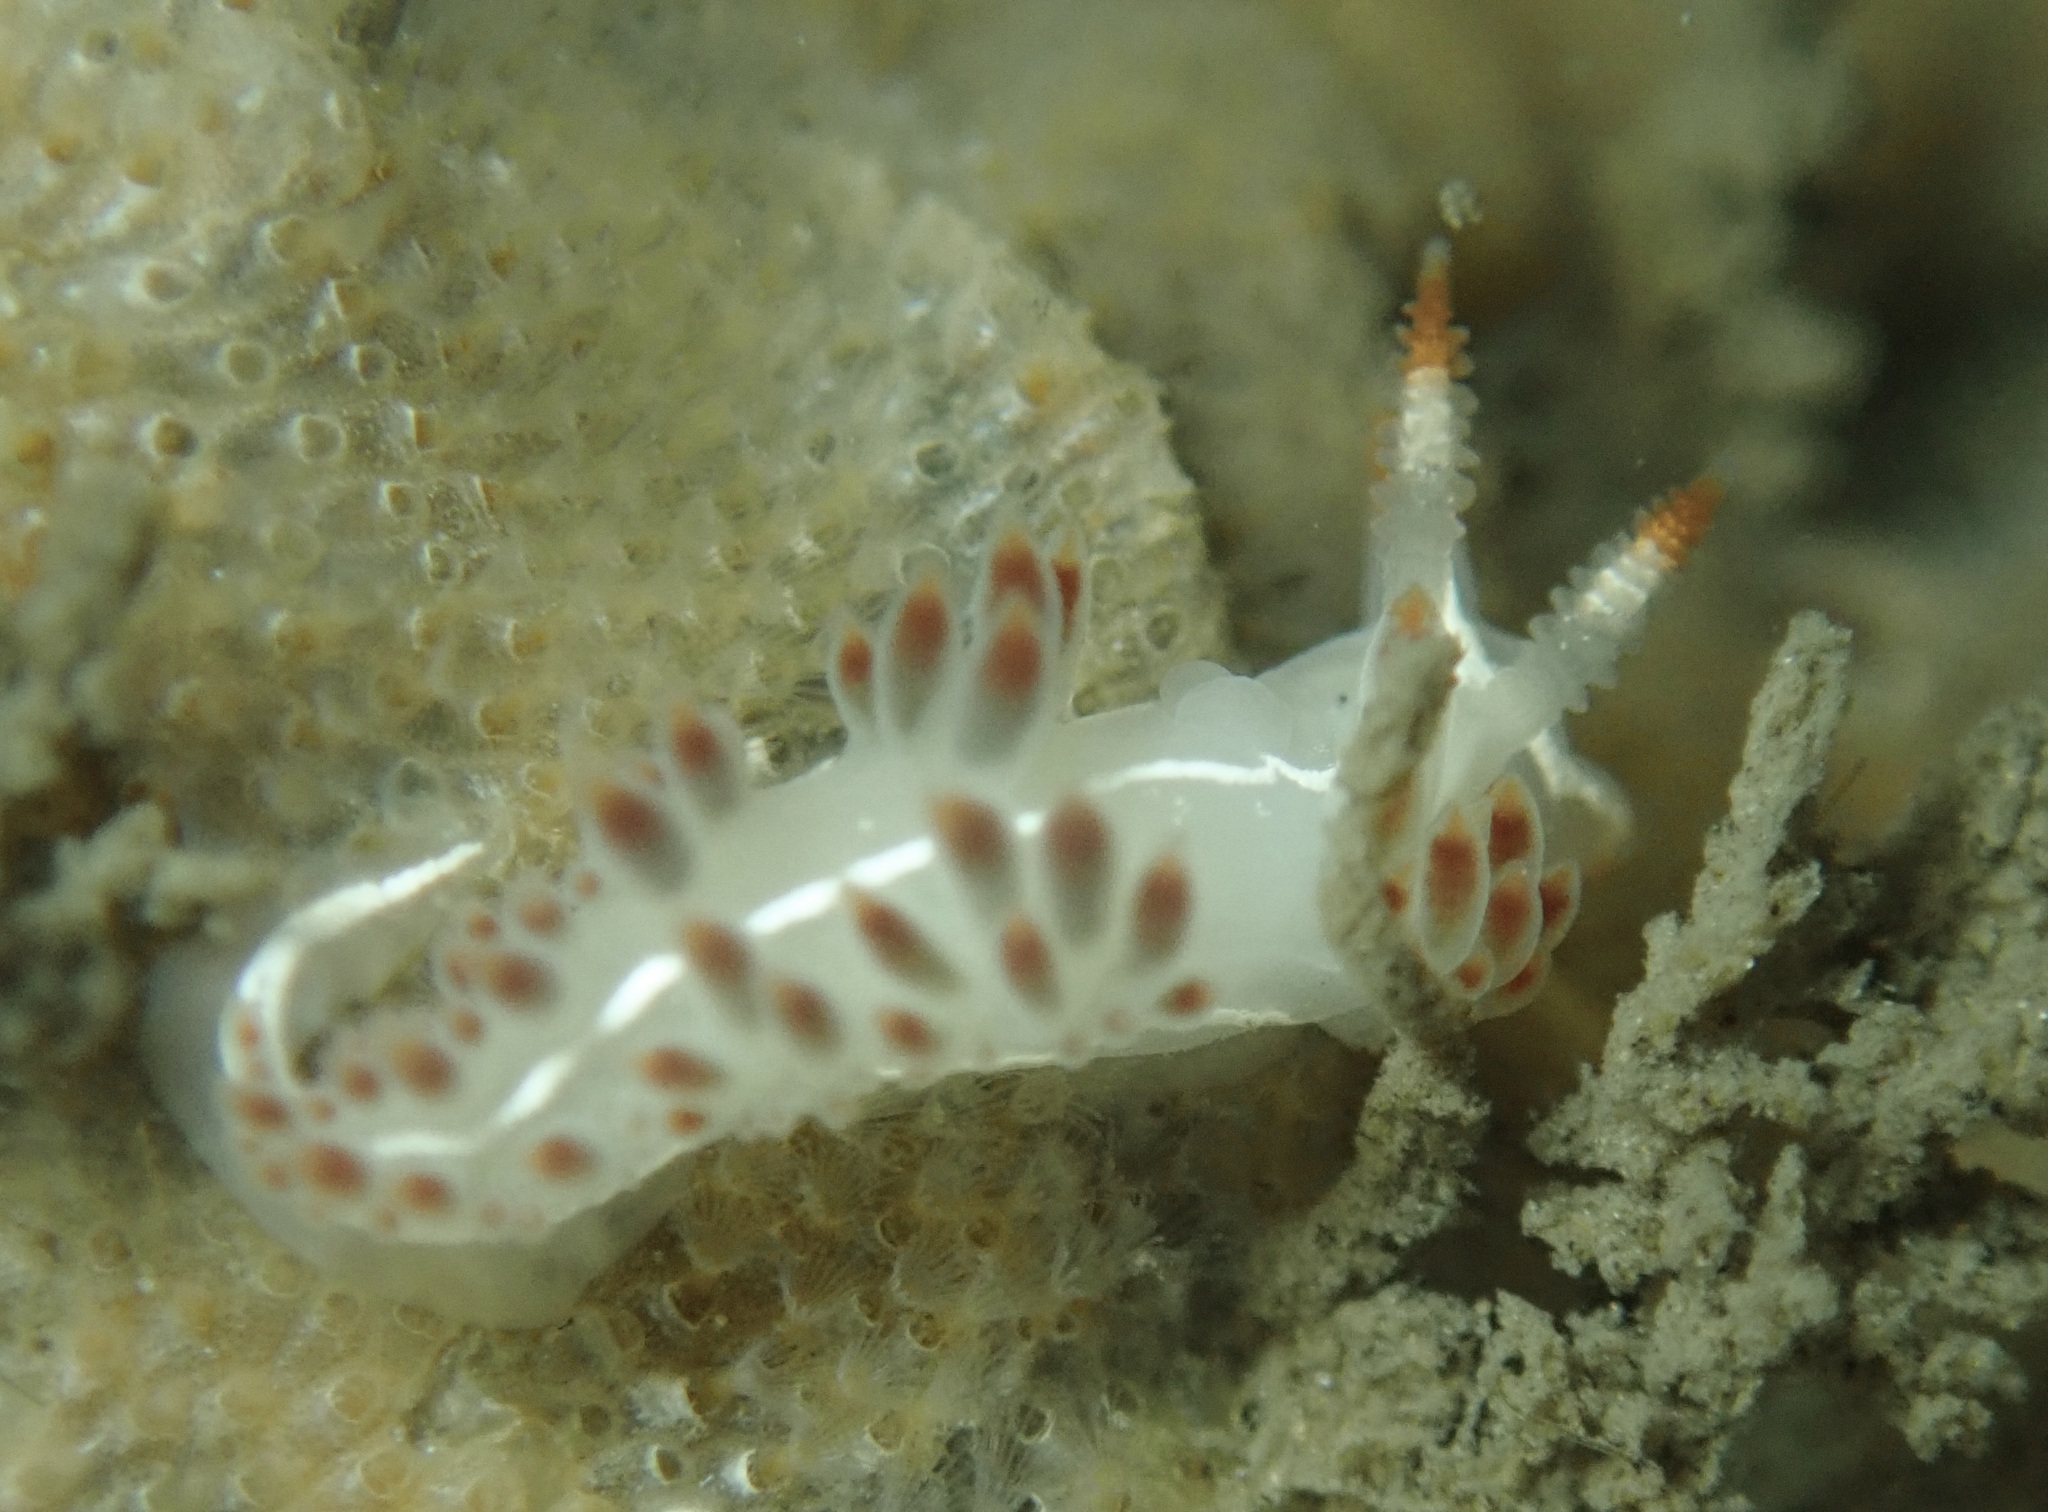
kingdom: Animalia
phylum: Mollusca
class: Gastropoda
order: Nudibranchia
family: Coryphellidae
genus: Coryphella
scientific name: Coryphella trilineata
